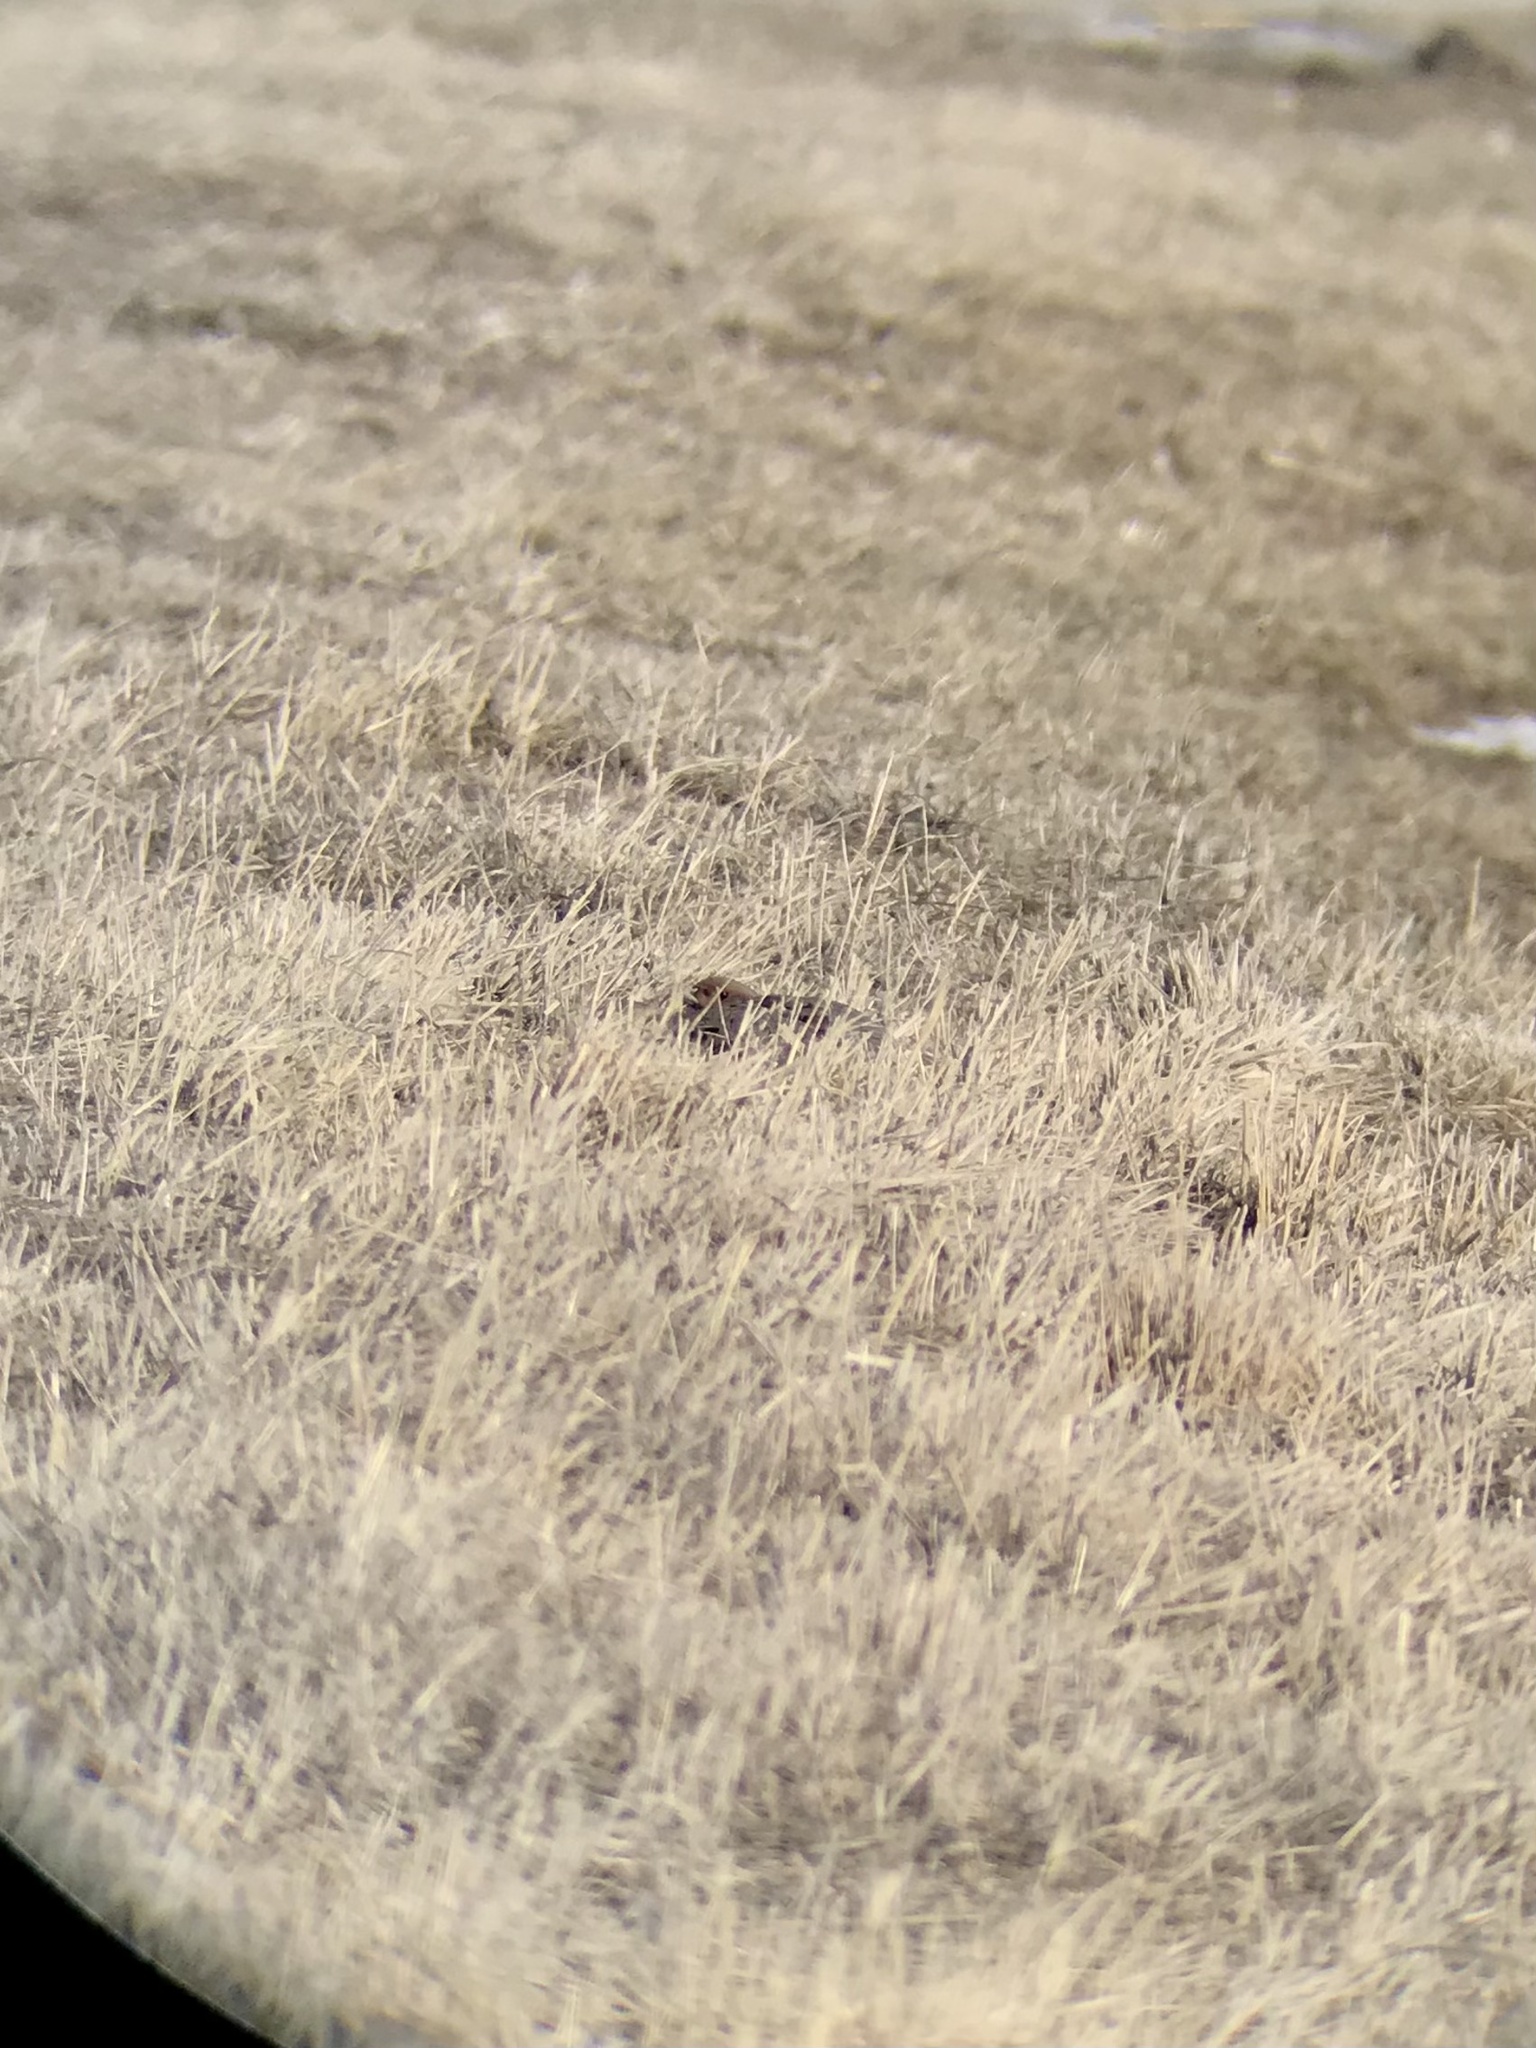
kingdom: Animalia
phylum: Chordata
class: Aves
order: Galliformes
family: Phasianidae
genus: Perdix
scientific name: Perdix perdix
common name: Grey partridge
